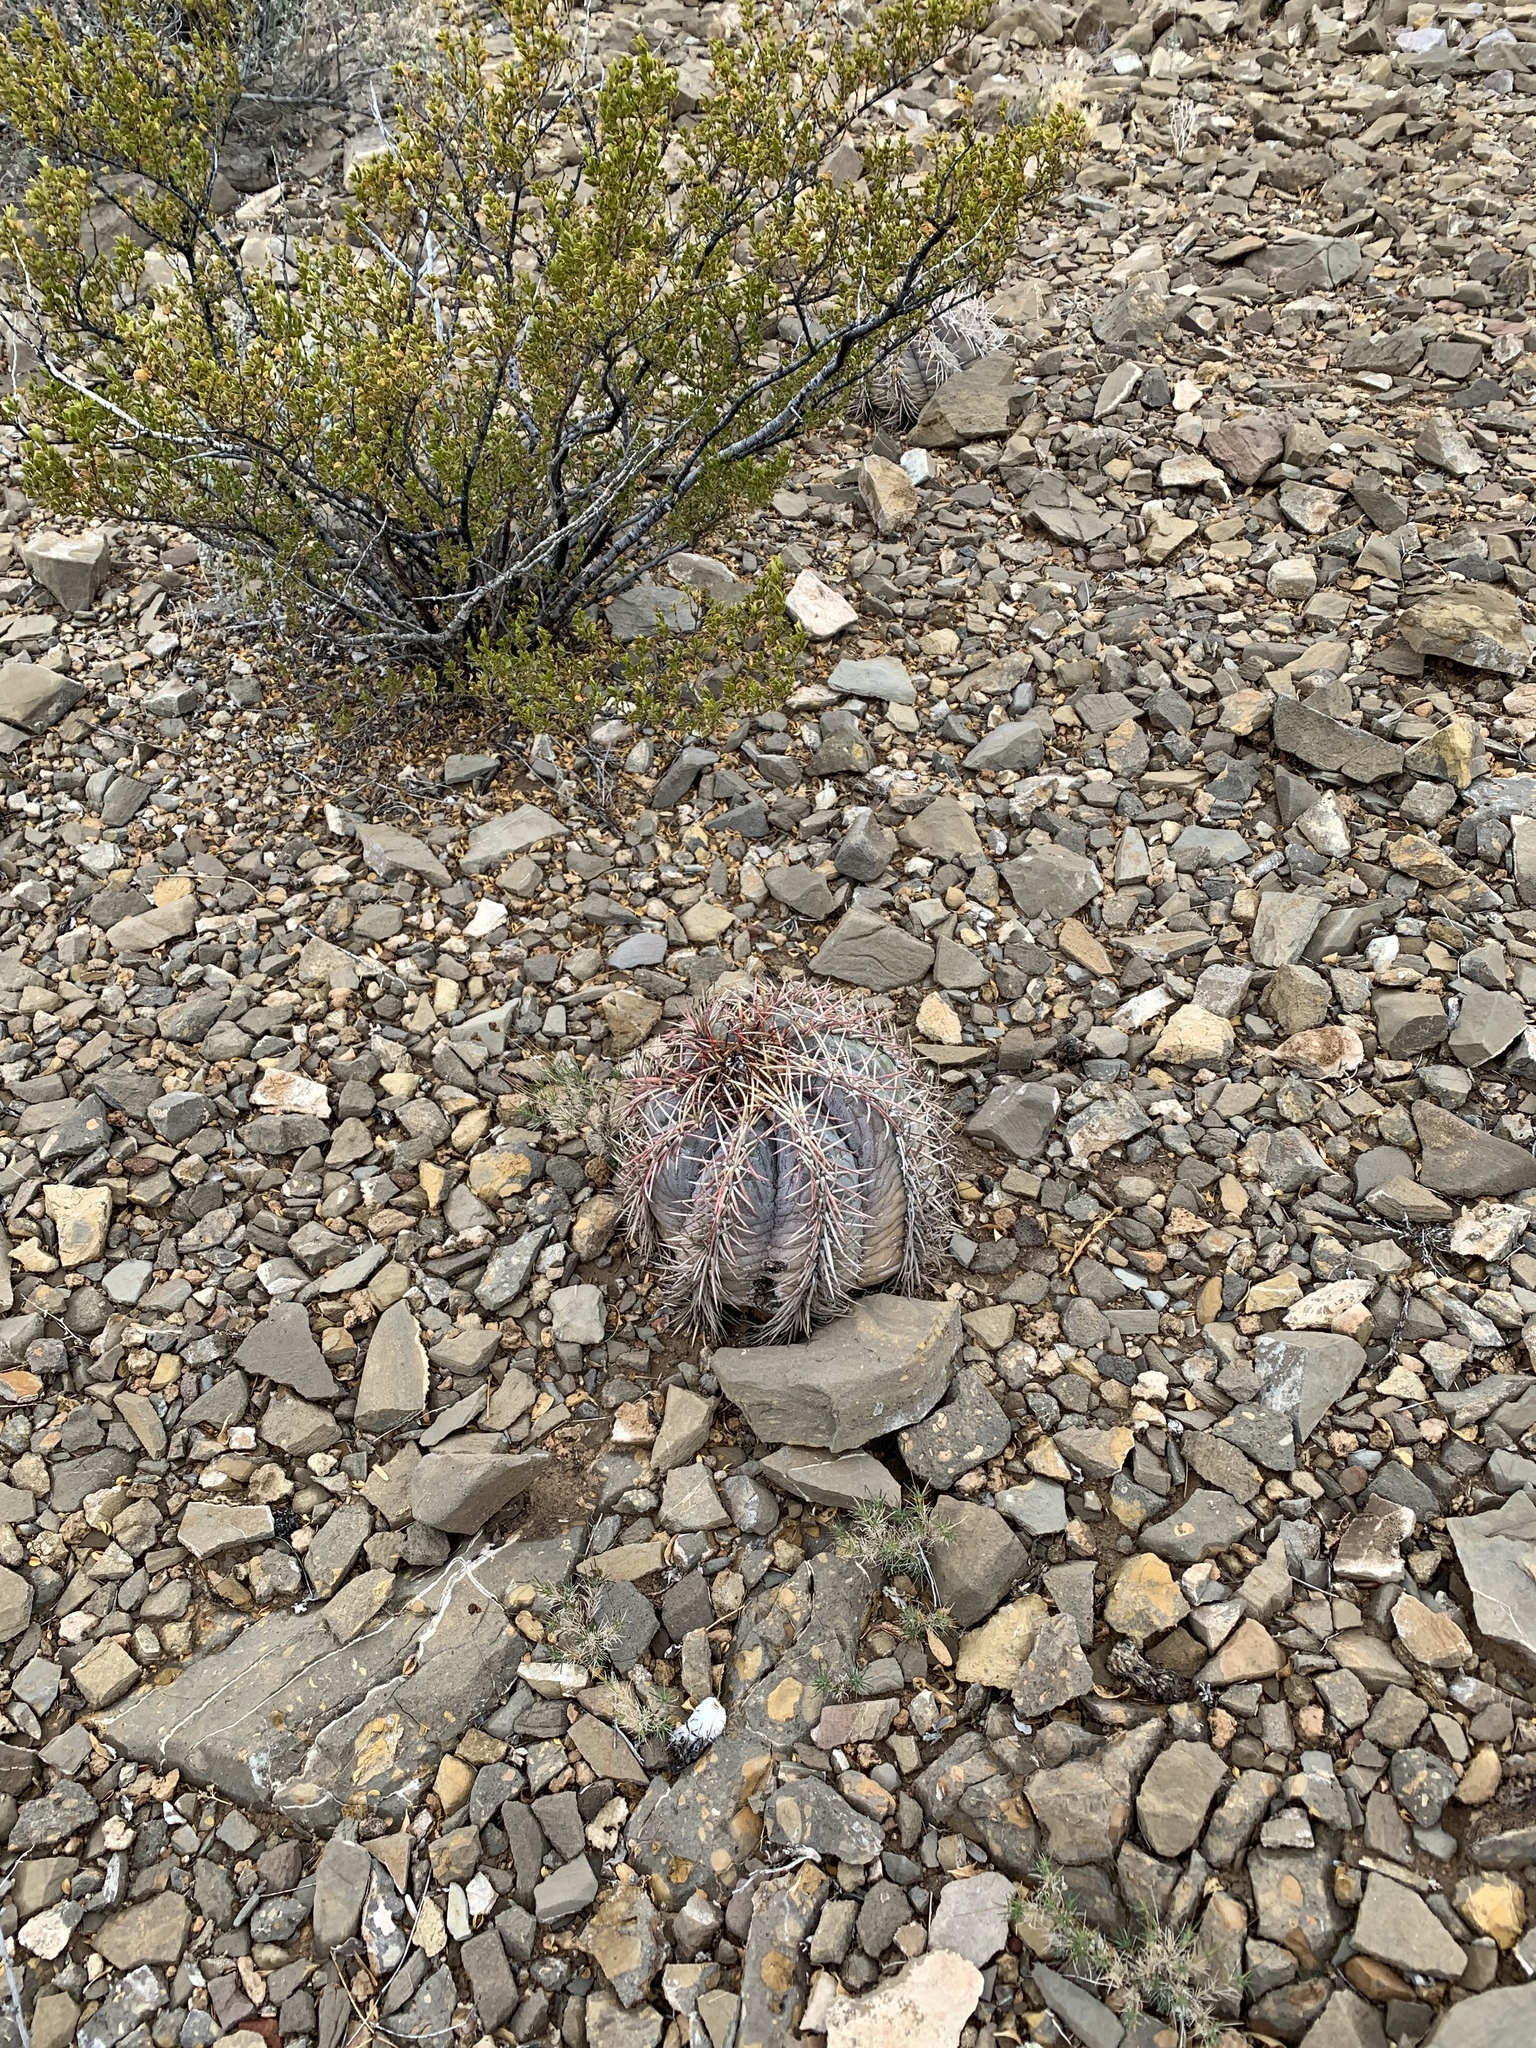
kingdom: Plantae
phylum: Tracheophyta
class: Magnoliopsida
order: Caryophyllales
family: Cactaceae
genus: Echinocactus
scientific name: Echinocactus horizonthalonius
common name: Devilshead
